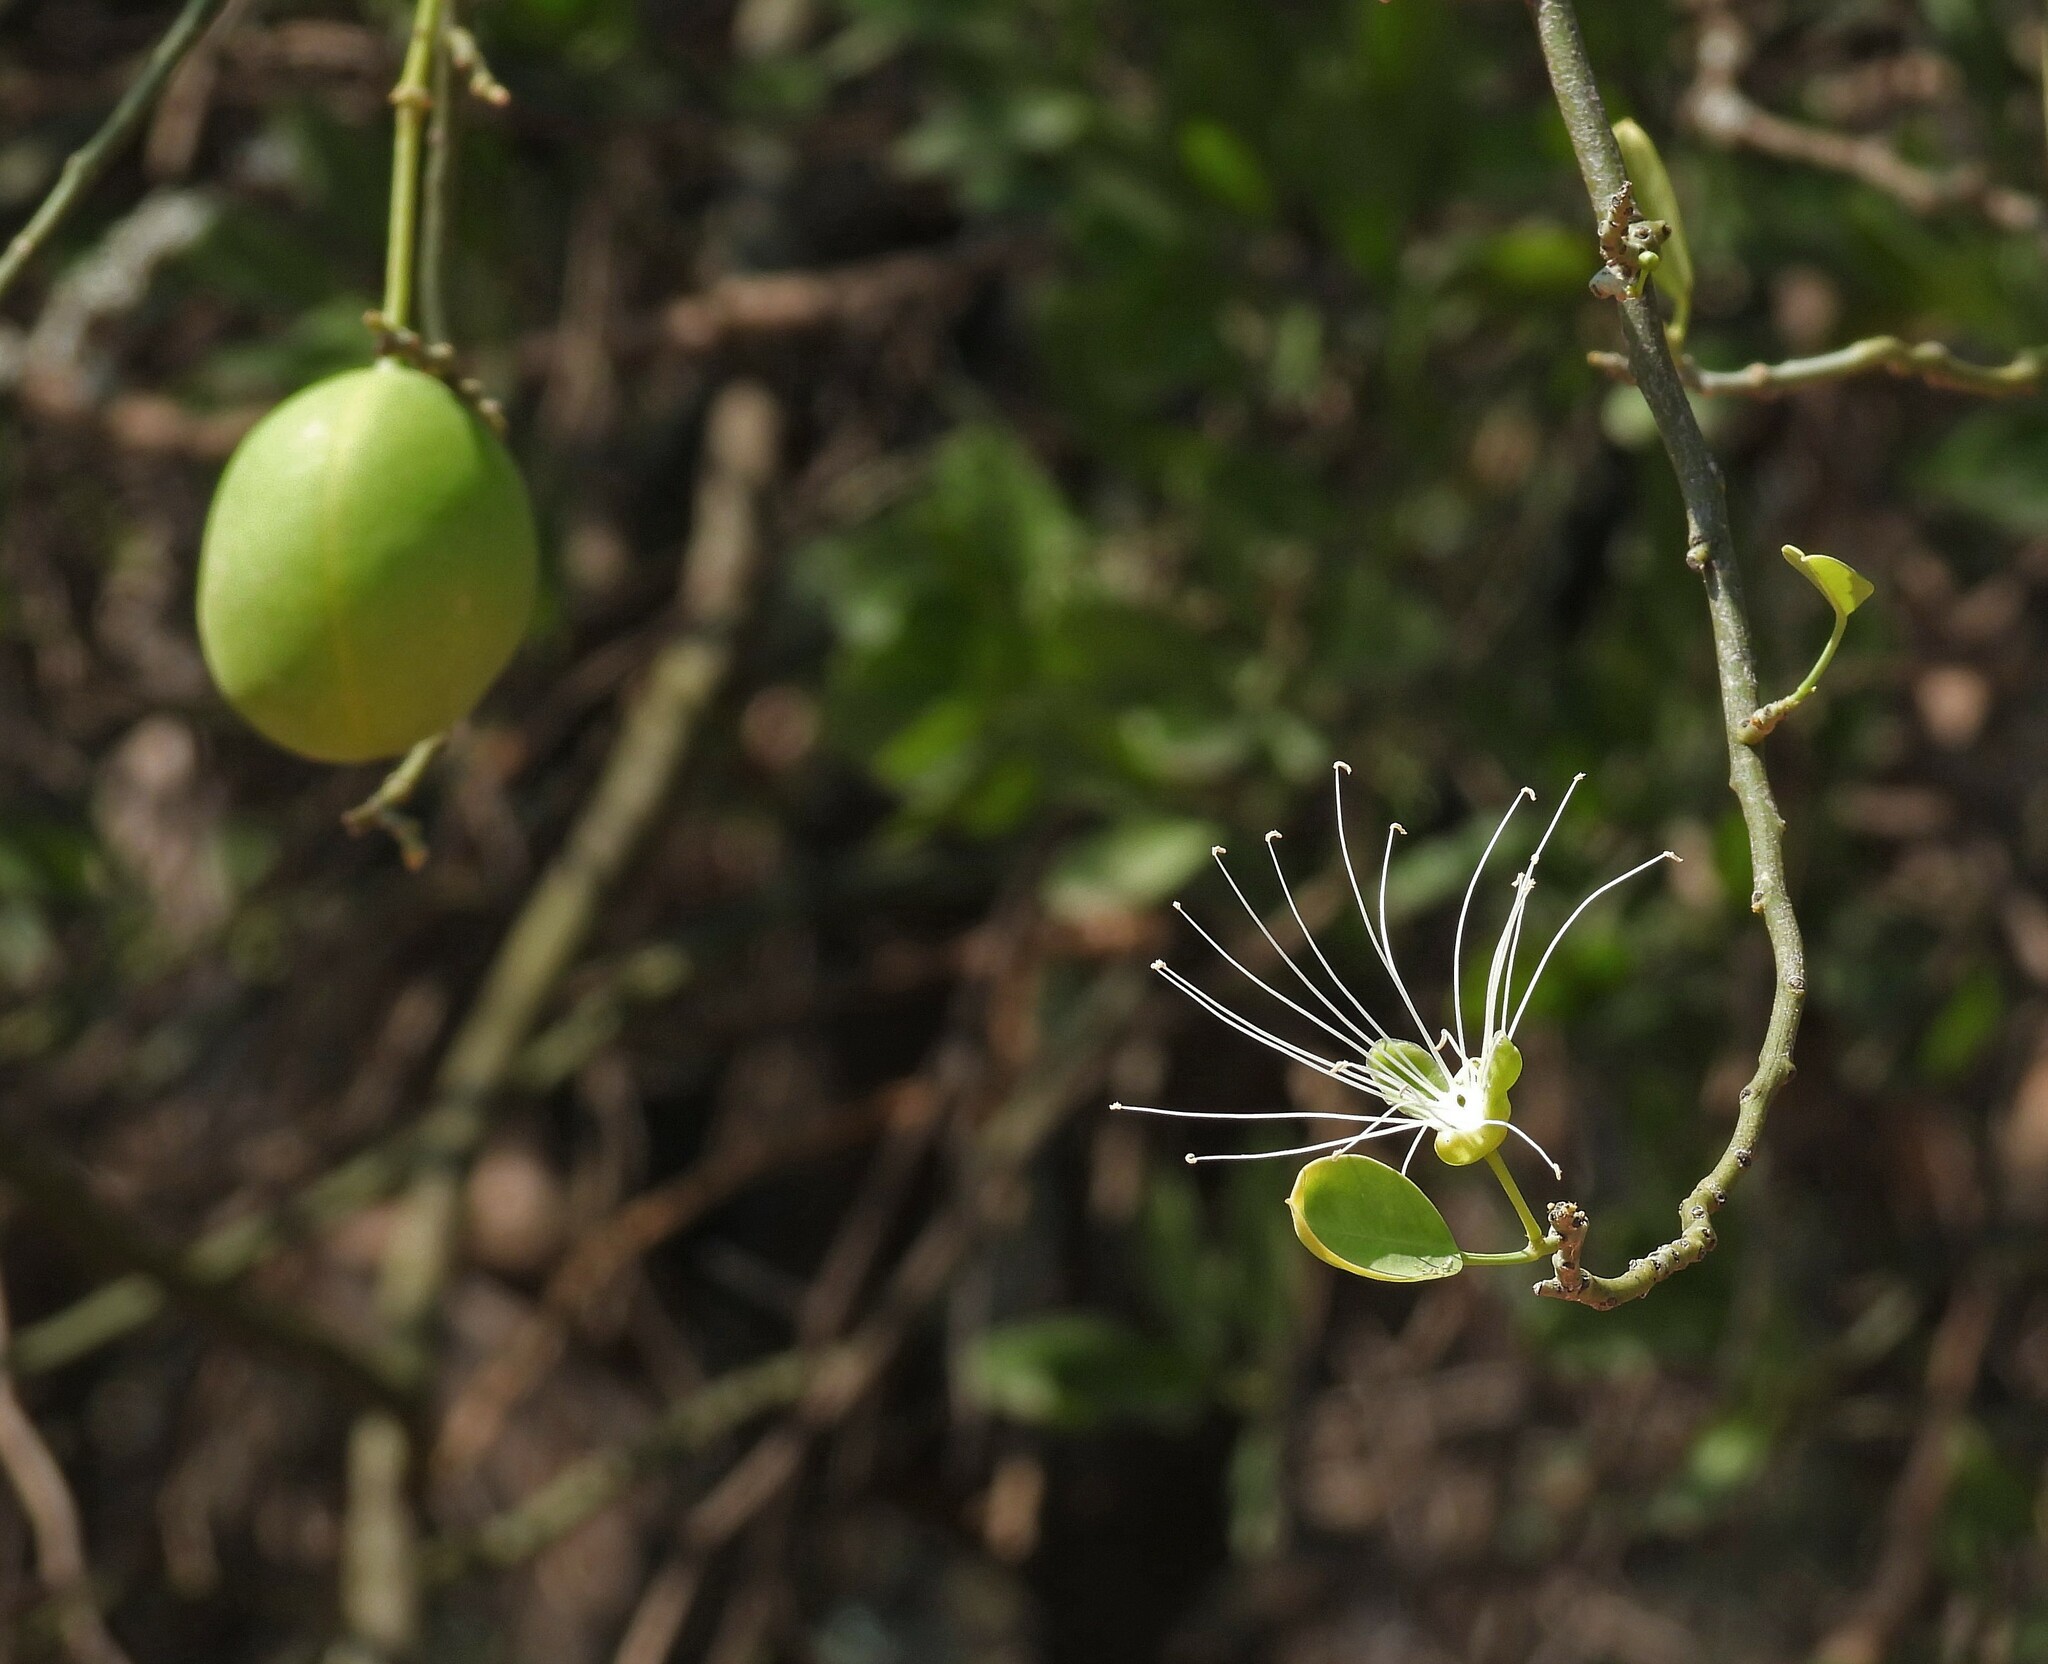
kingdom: Plantae
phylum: Tracheophyta
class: Magnoliopsida
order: Brassicales
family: Capparaceae
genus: Anisocapparis
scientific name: Anisocapparis speciosa
